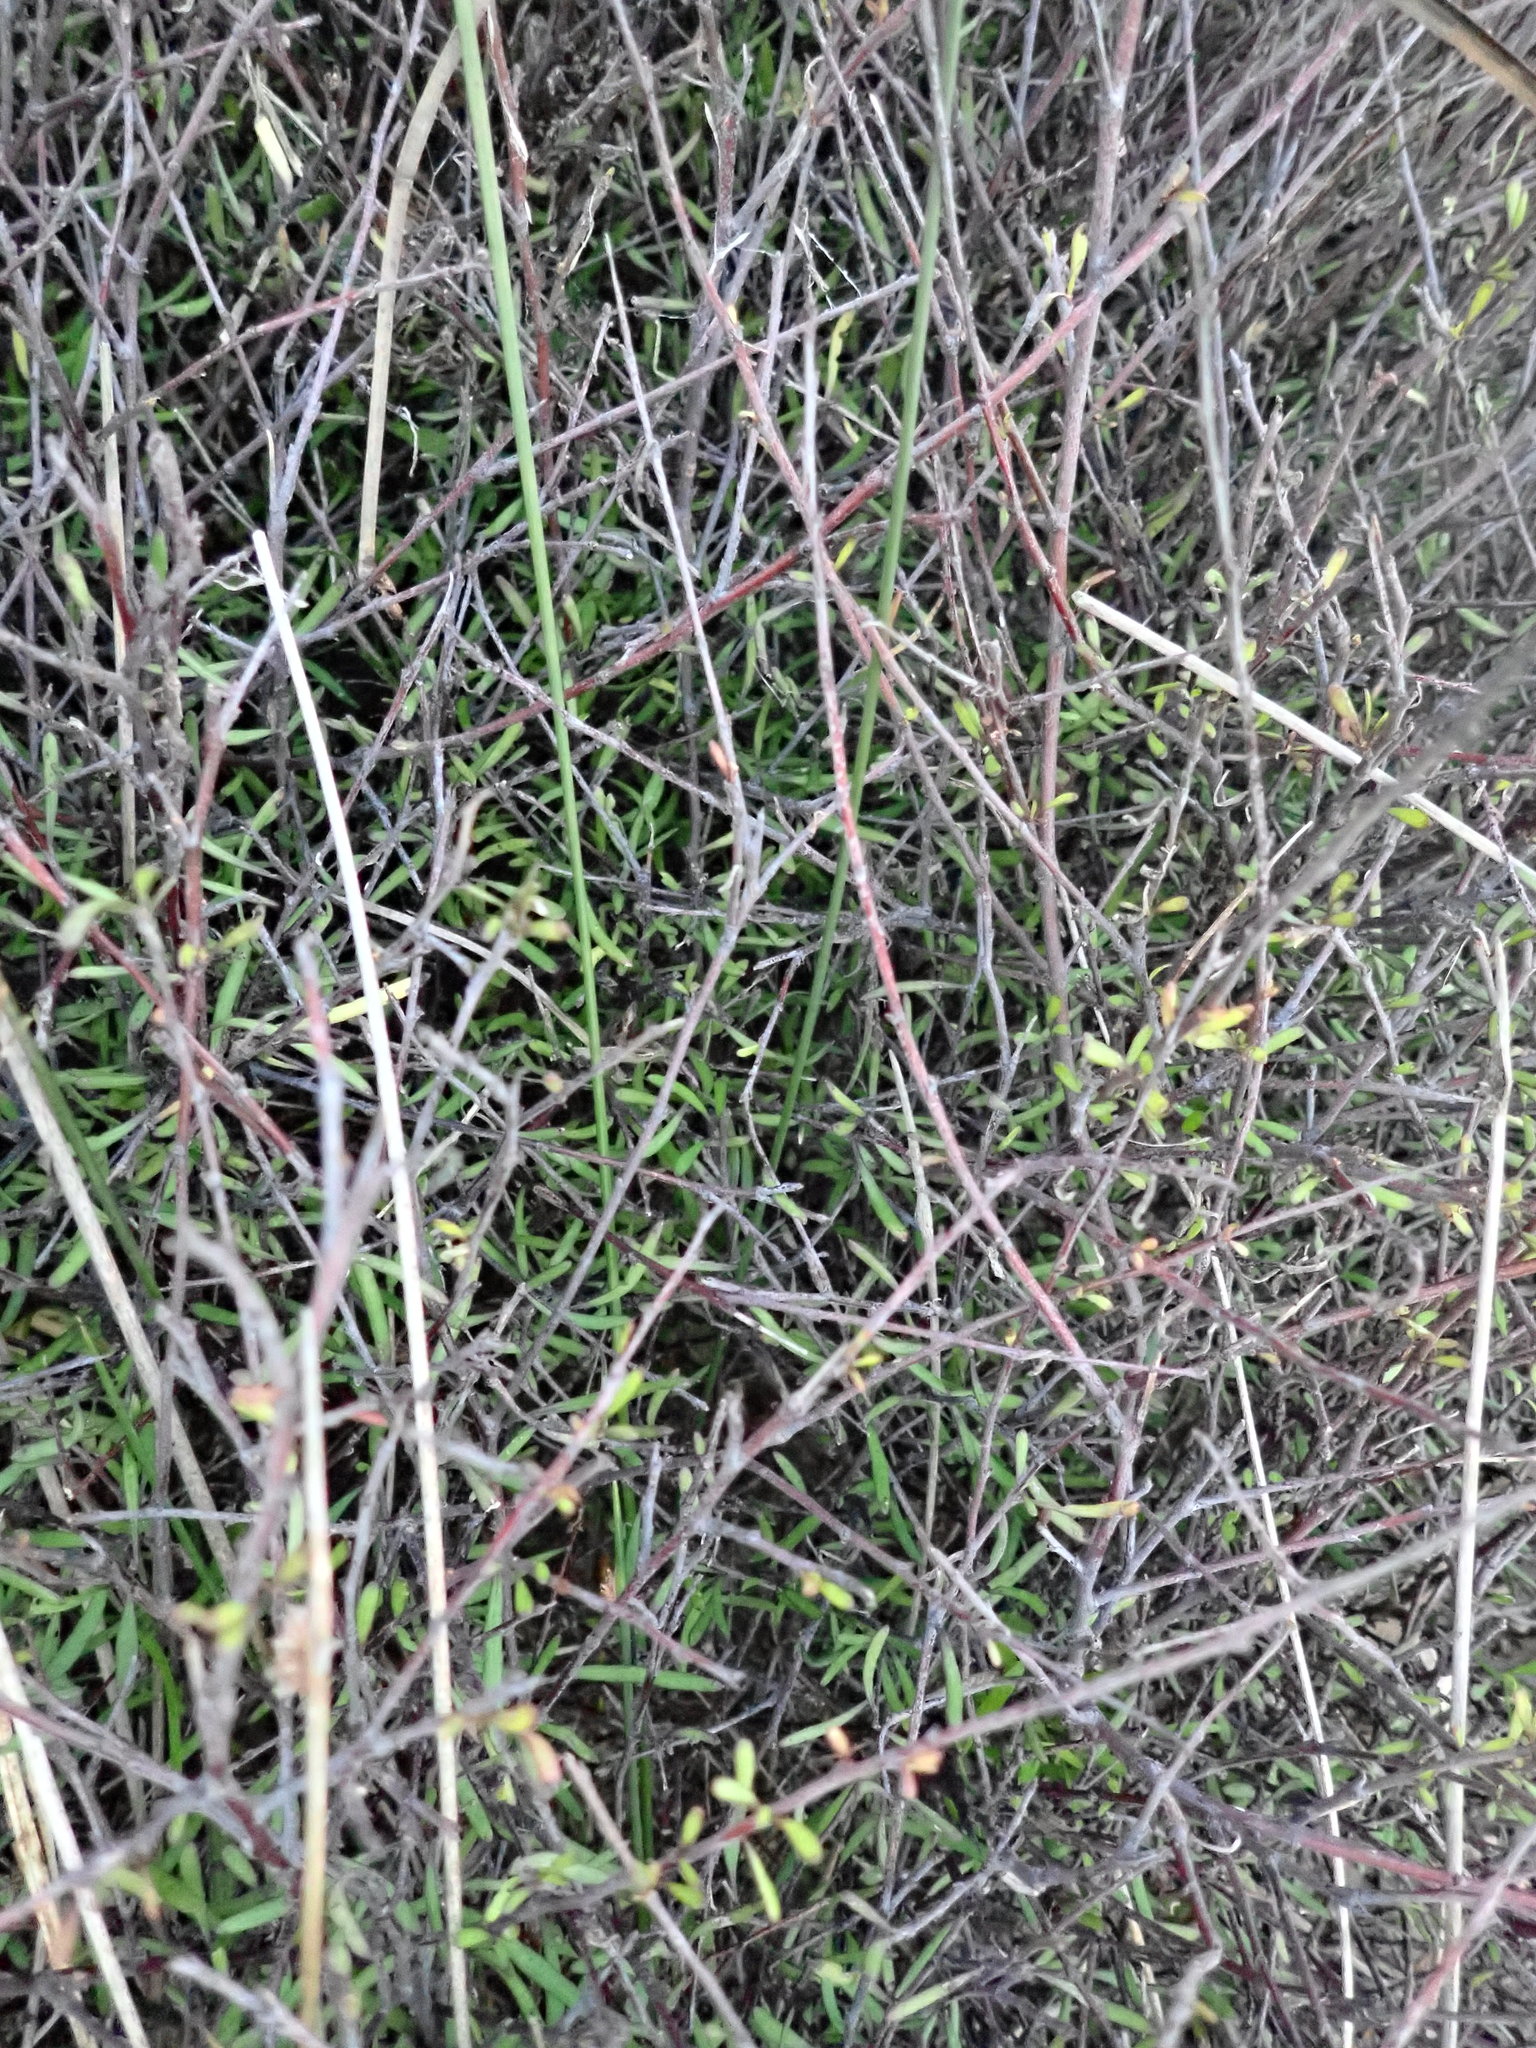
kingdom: Plantae
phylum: Tracheophyta
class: Magnoliopsida
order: Malvales
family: Malvaceae
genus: Plagianthus
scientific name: Plagianthus divaricatus
